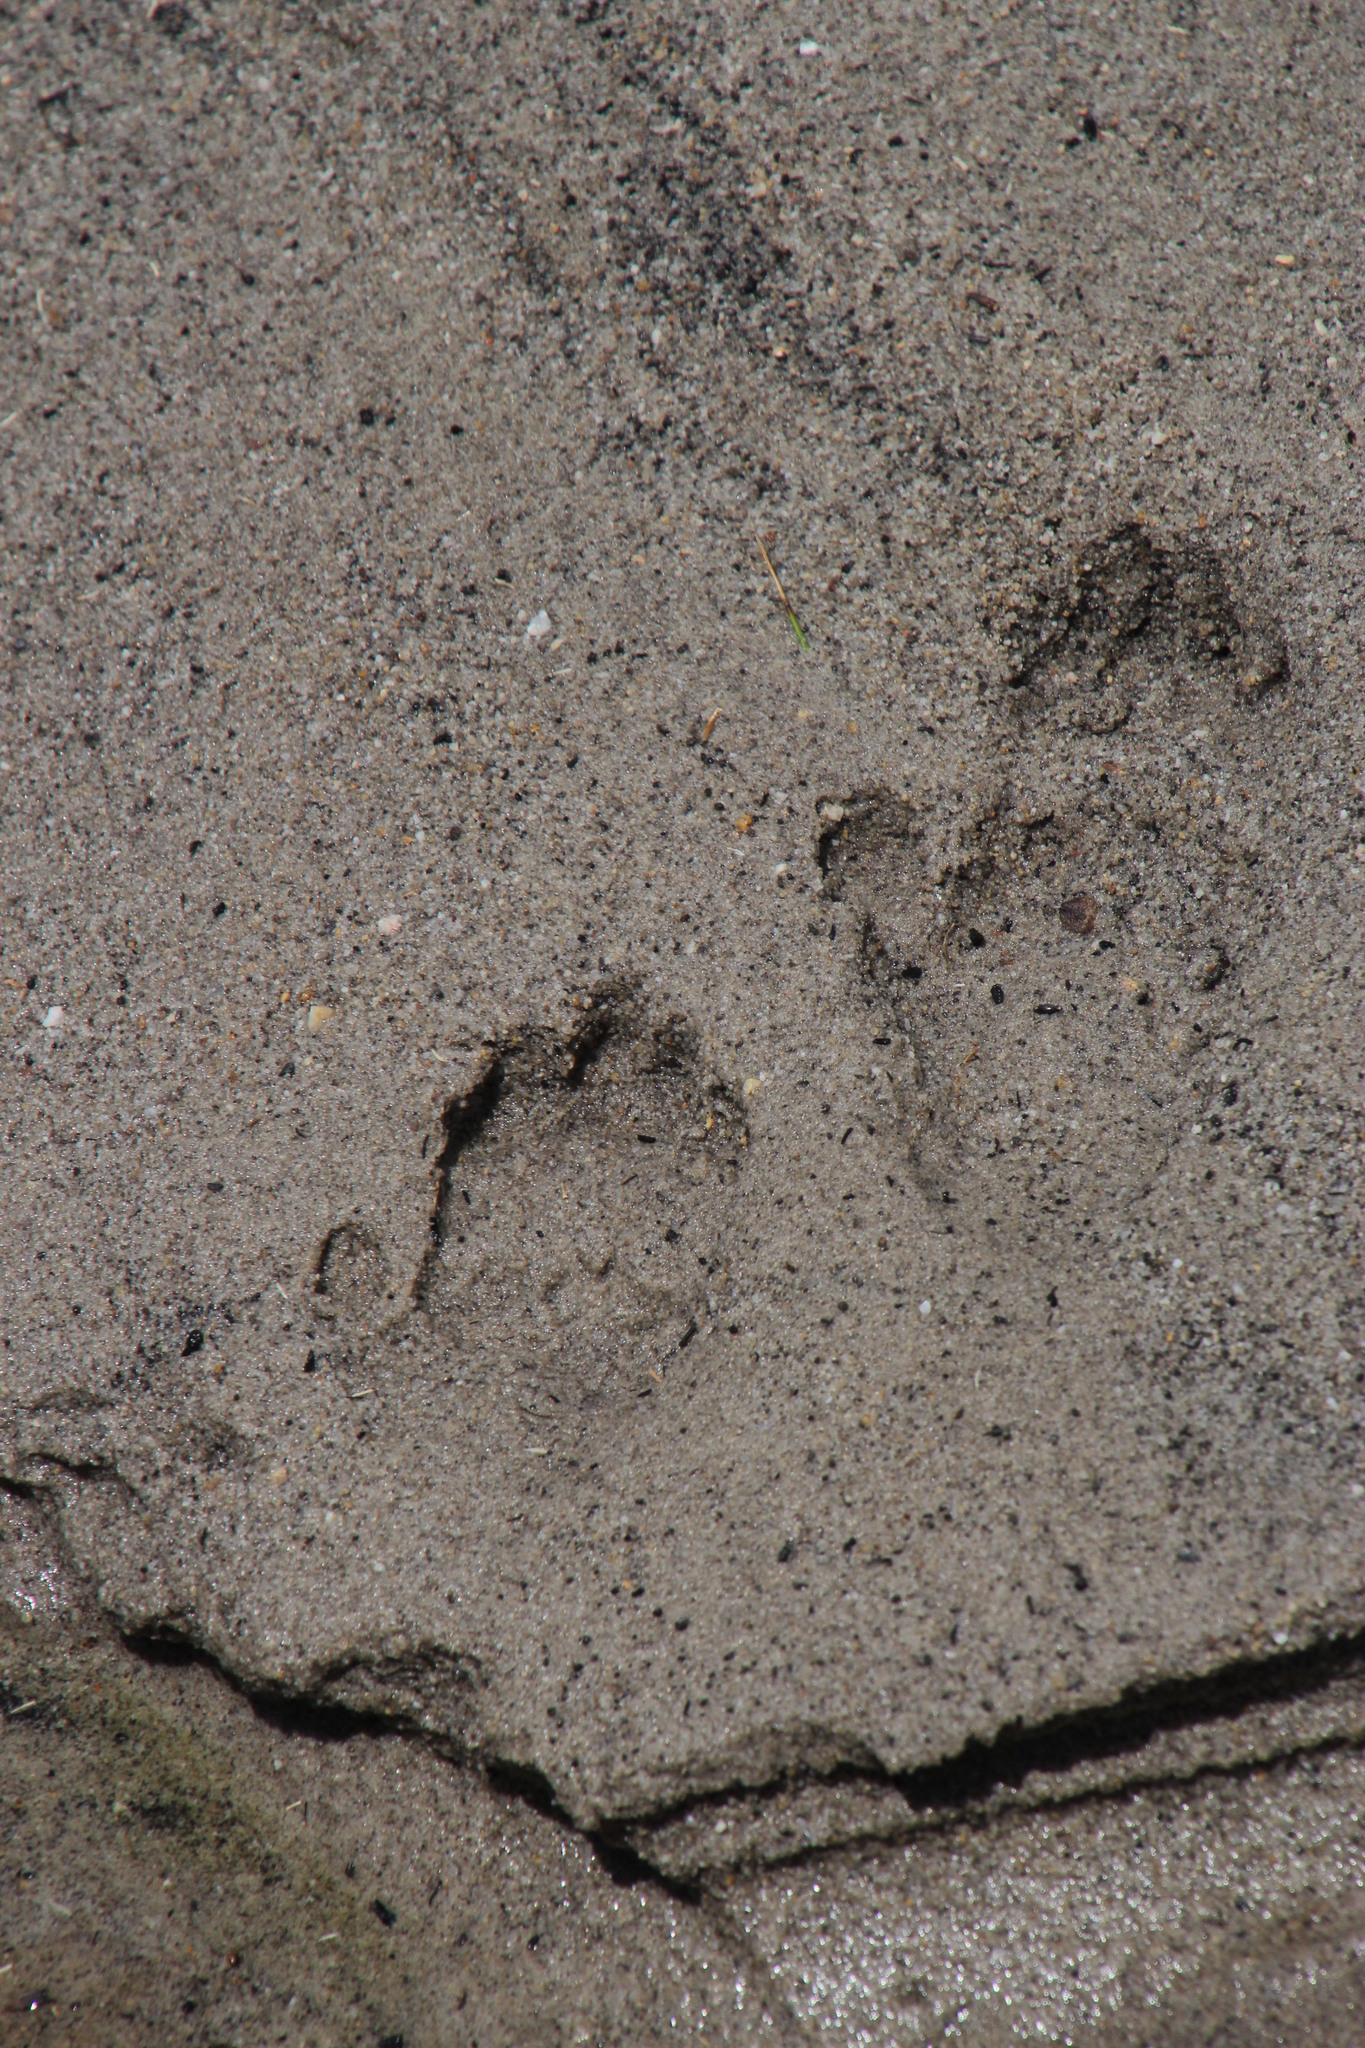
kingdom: Animalia
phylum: Chordata
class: Mammalia
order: Primates
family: Cercopithecidae
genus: Papio
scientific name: Papio ursinus
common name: Chacma baboon
